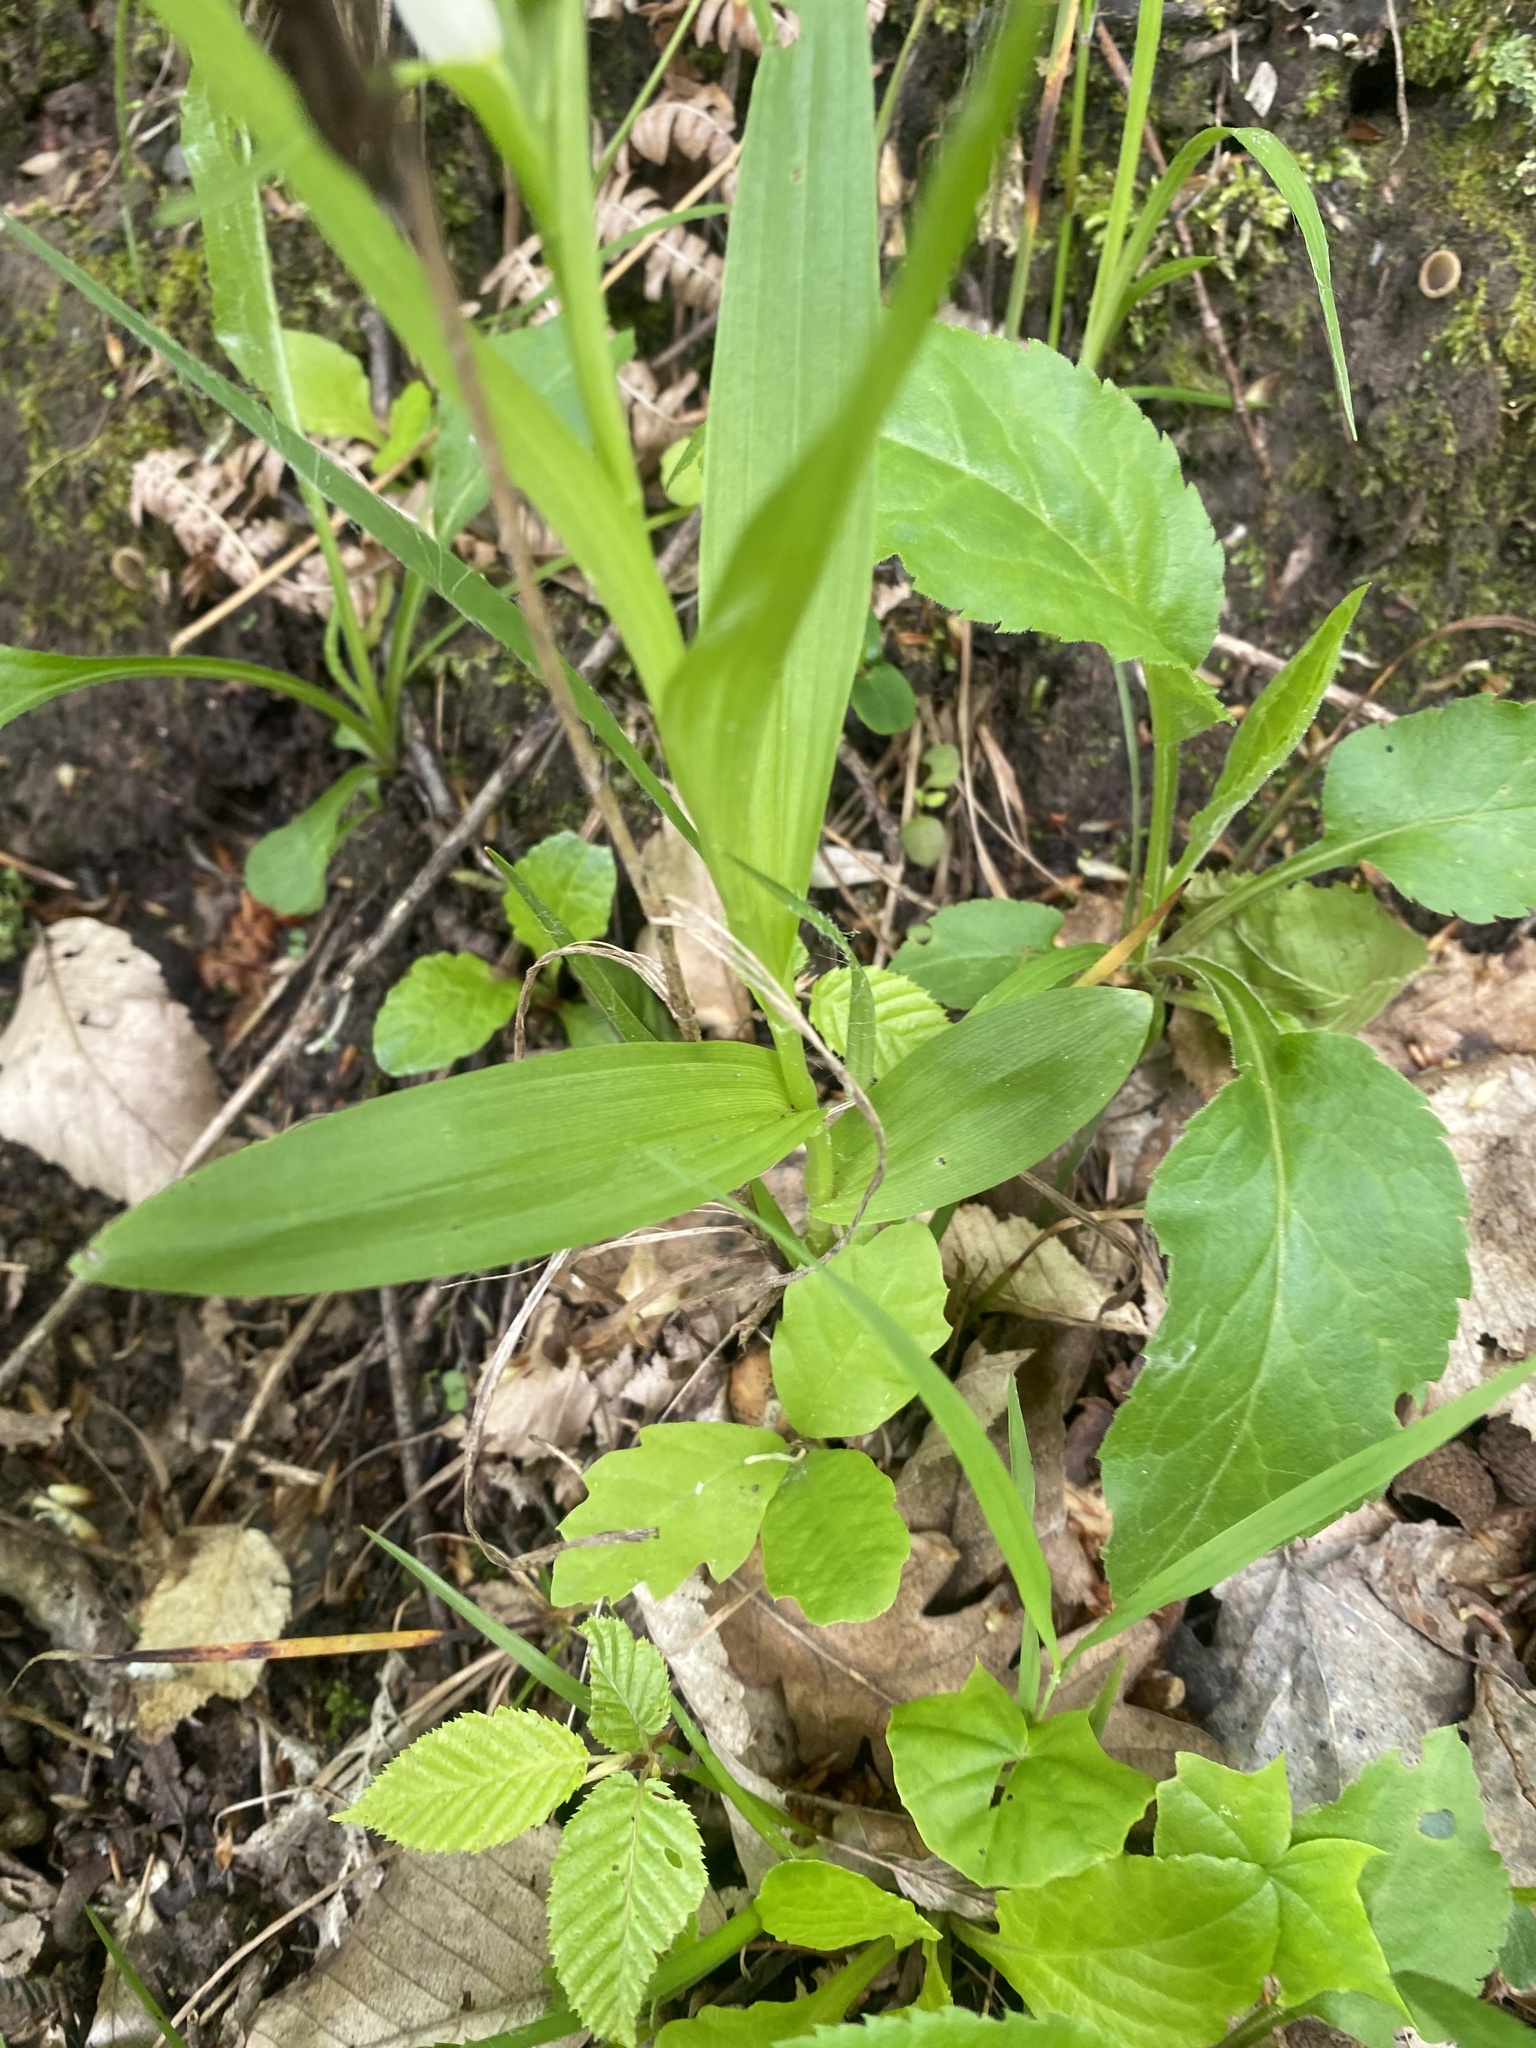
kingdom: Plantae
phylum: Tracheophyta
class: Liliopsida
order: Asparagales
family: Orchidaceae
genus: Cephalanthera
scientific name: Cephalanthera longifolia
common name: Narrow-leaved helleborine
